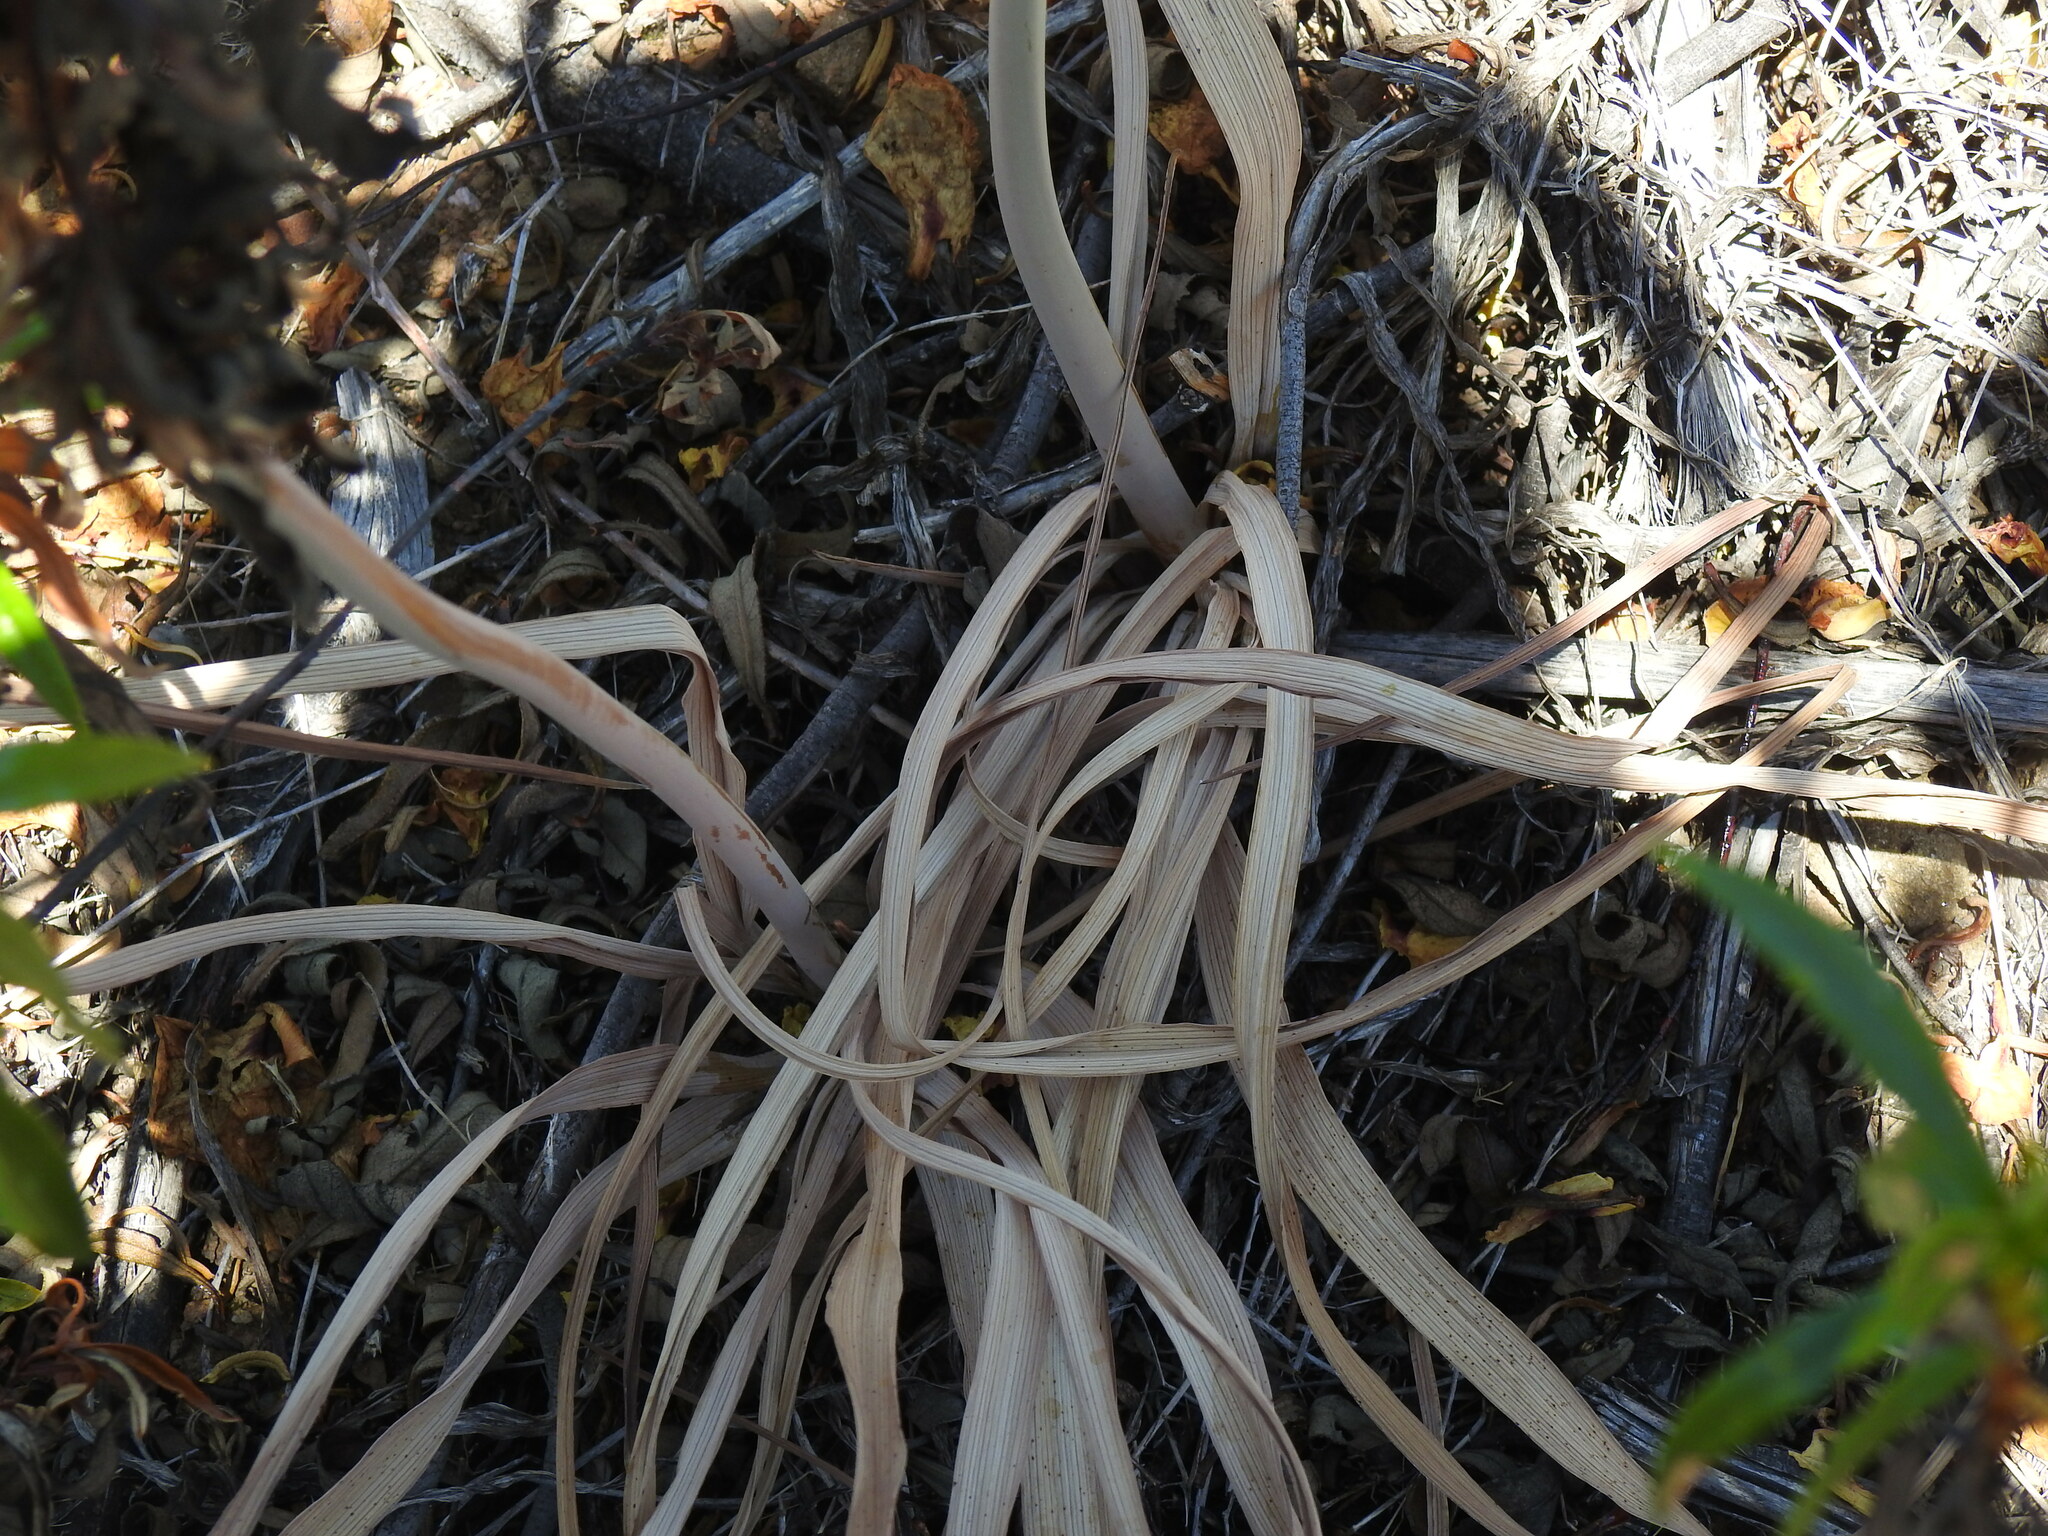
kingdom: Plantae
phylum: Tracheophyta
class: Liliopsida
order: Asparagales
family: Asphodelaceae
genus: Asphodelus
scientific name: Asphodelus serotinus
